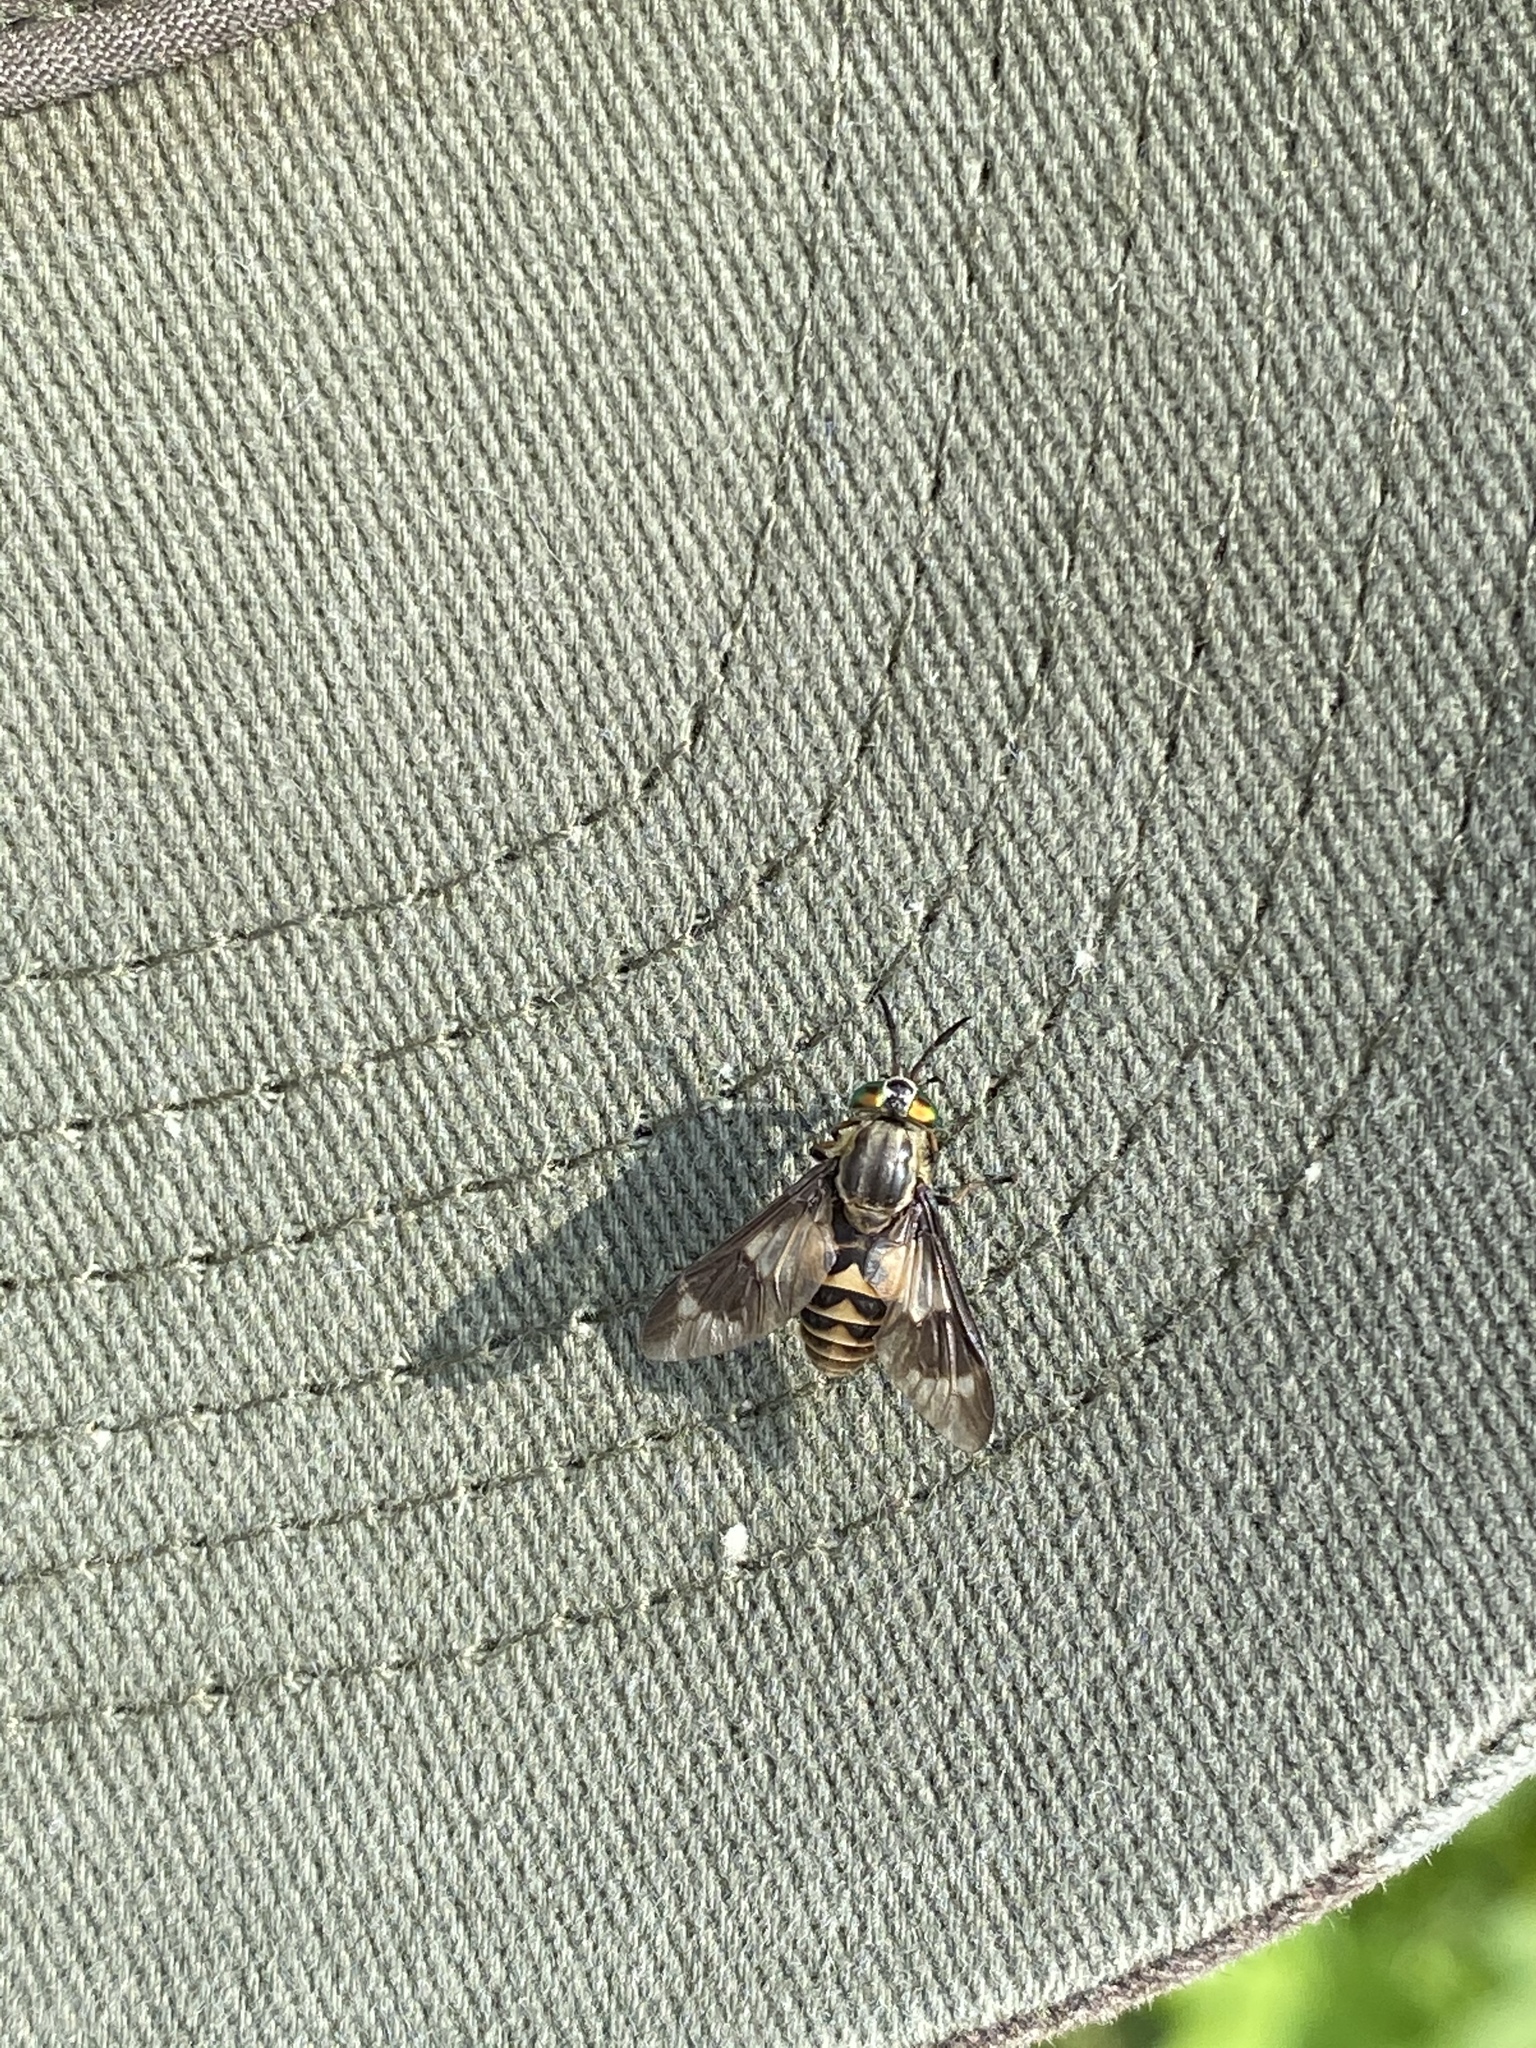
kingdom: Animalia
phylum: Arthropoda
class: Insecta
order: Diptera
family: Tabanidae
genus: Chrysops
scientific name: Chrysops relictus
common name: Twin-lobed deerfly
